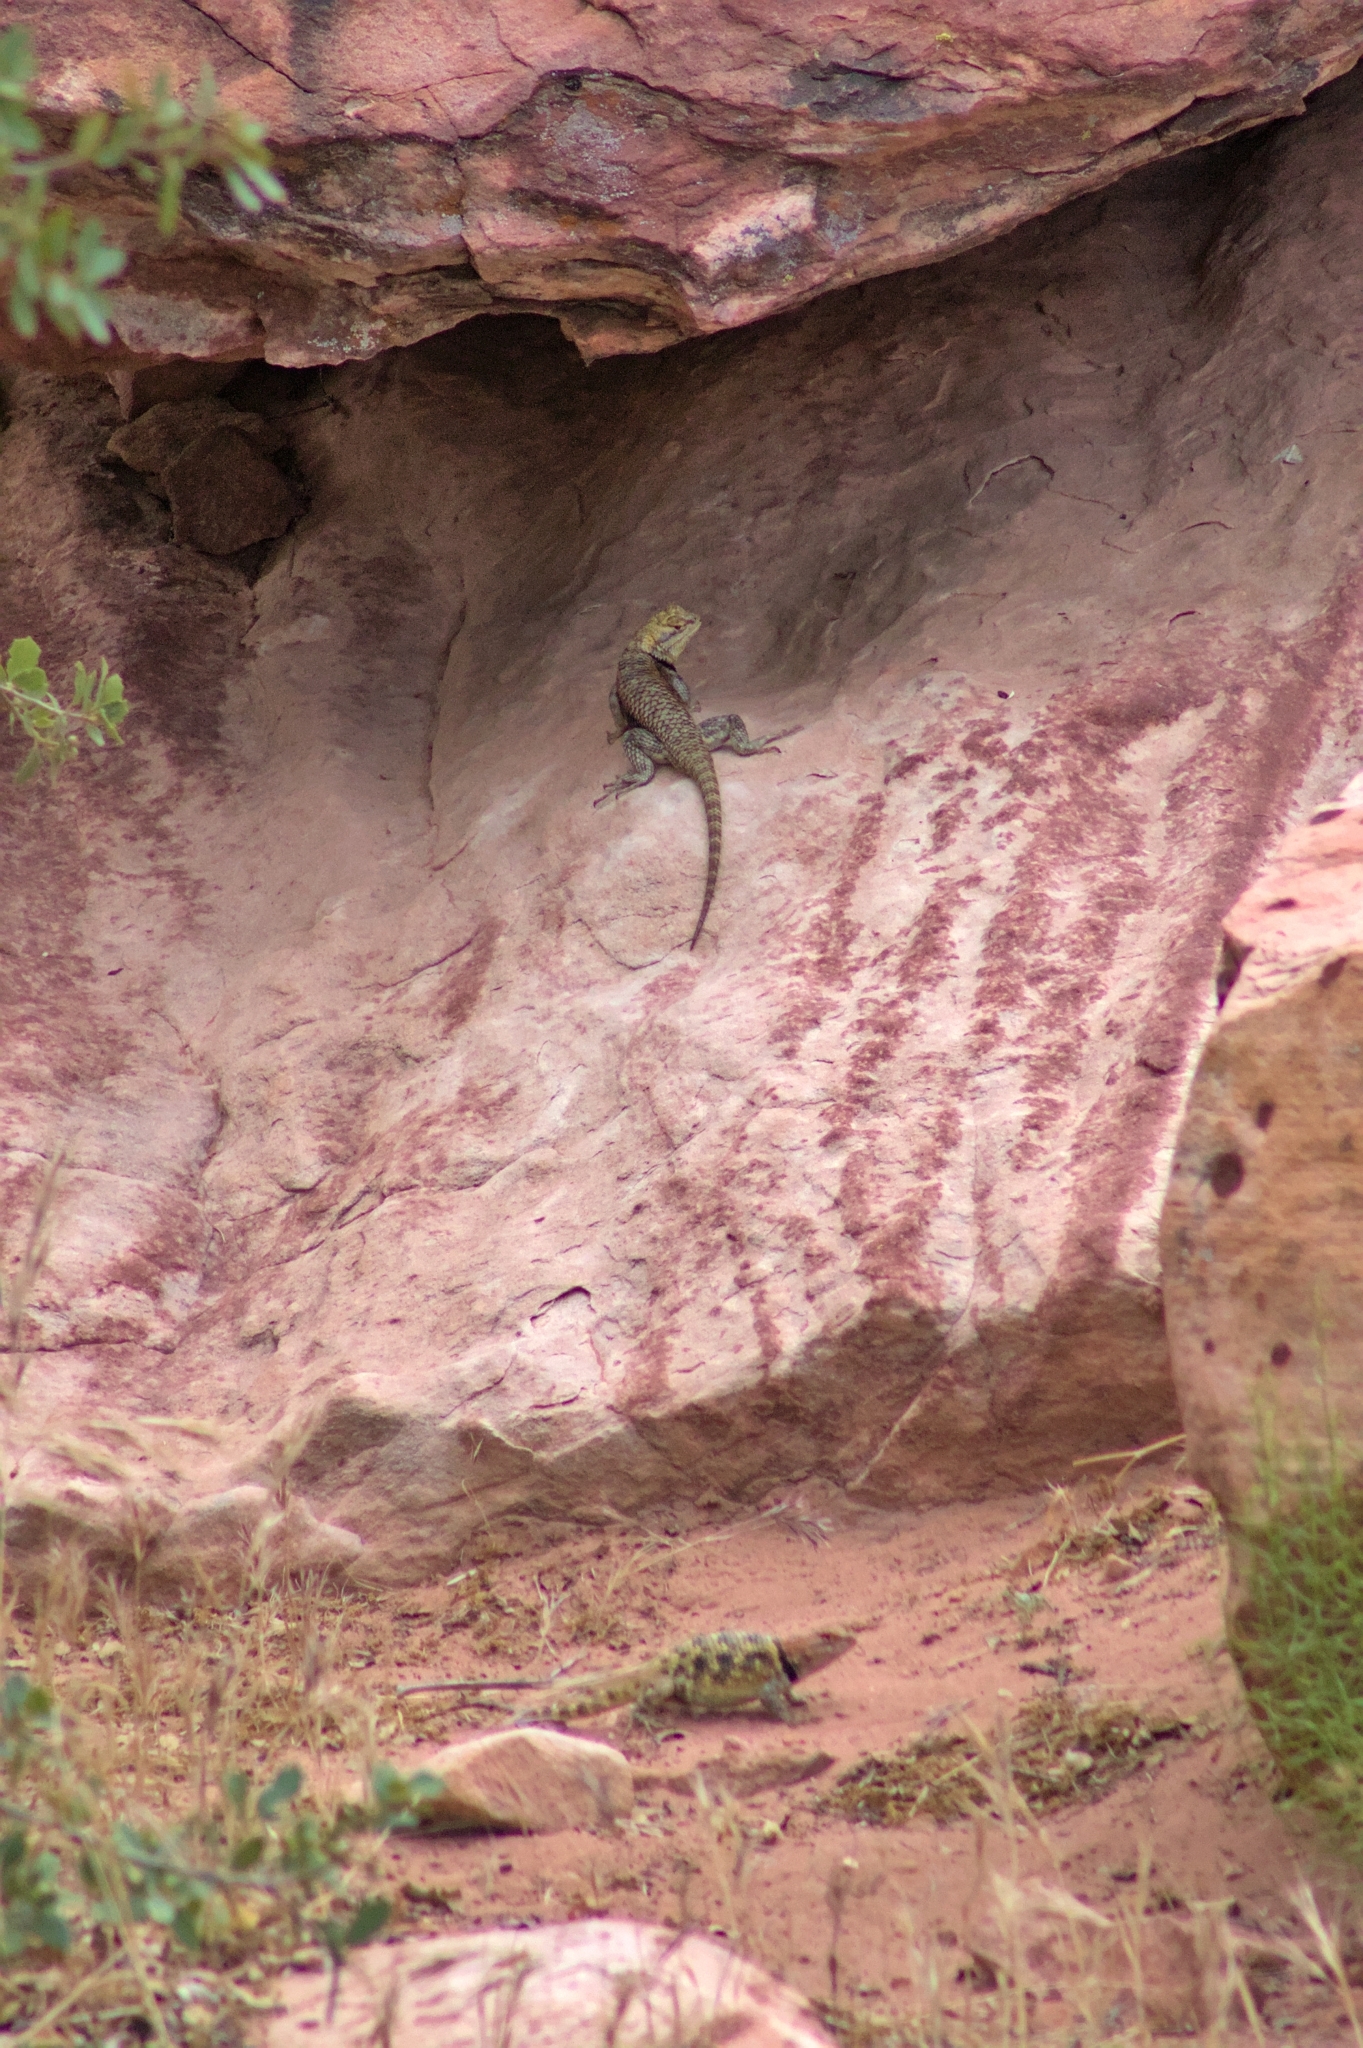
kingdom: Animalia
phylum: Chordata
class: Squamata
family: Phrynosomatidae
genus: Sceloporus
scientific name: Sceloporus uniformis
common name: Yellow-backed spiny lizard
